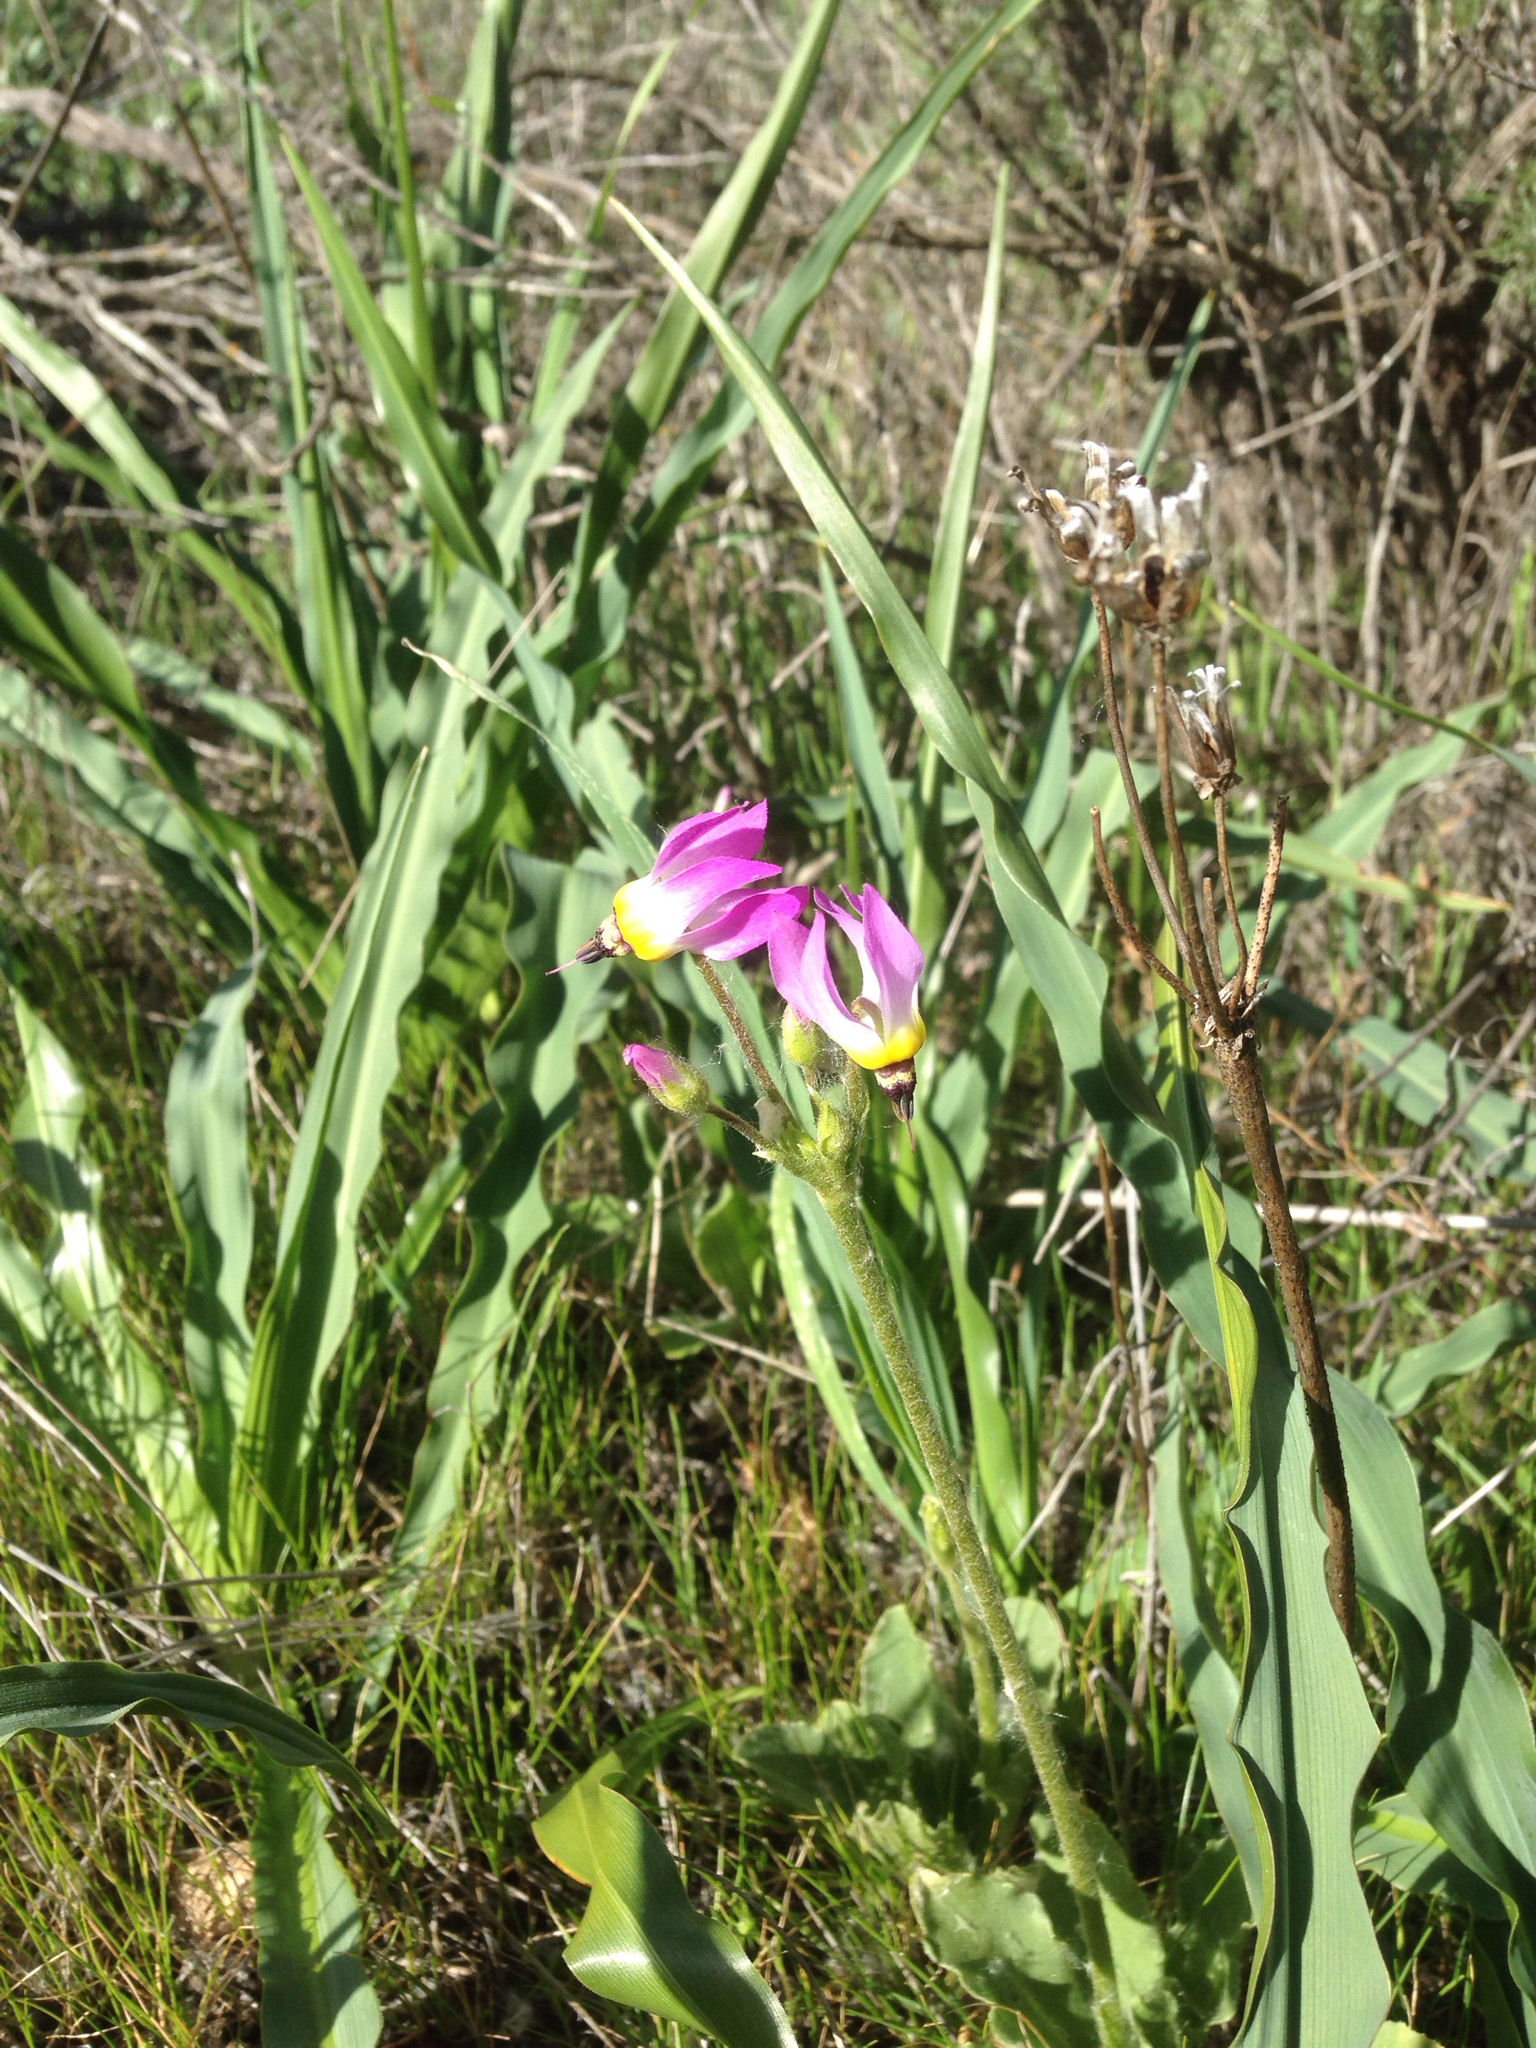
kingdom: Plantae
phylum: Tracheophyta
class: Magnoliopsida
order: Ericales
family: Primulaceae
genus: Dodecatheon
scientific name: Dodecatheon clevelandii
